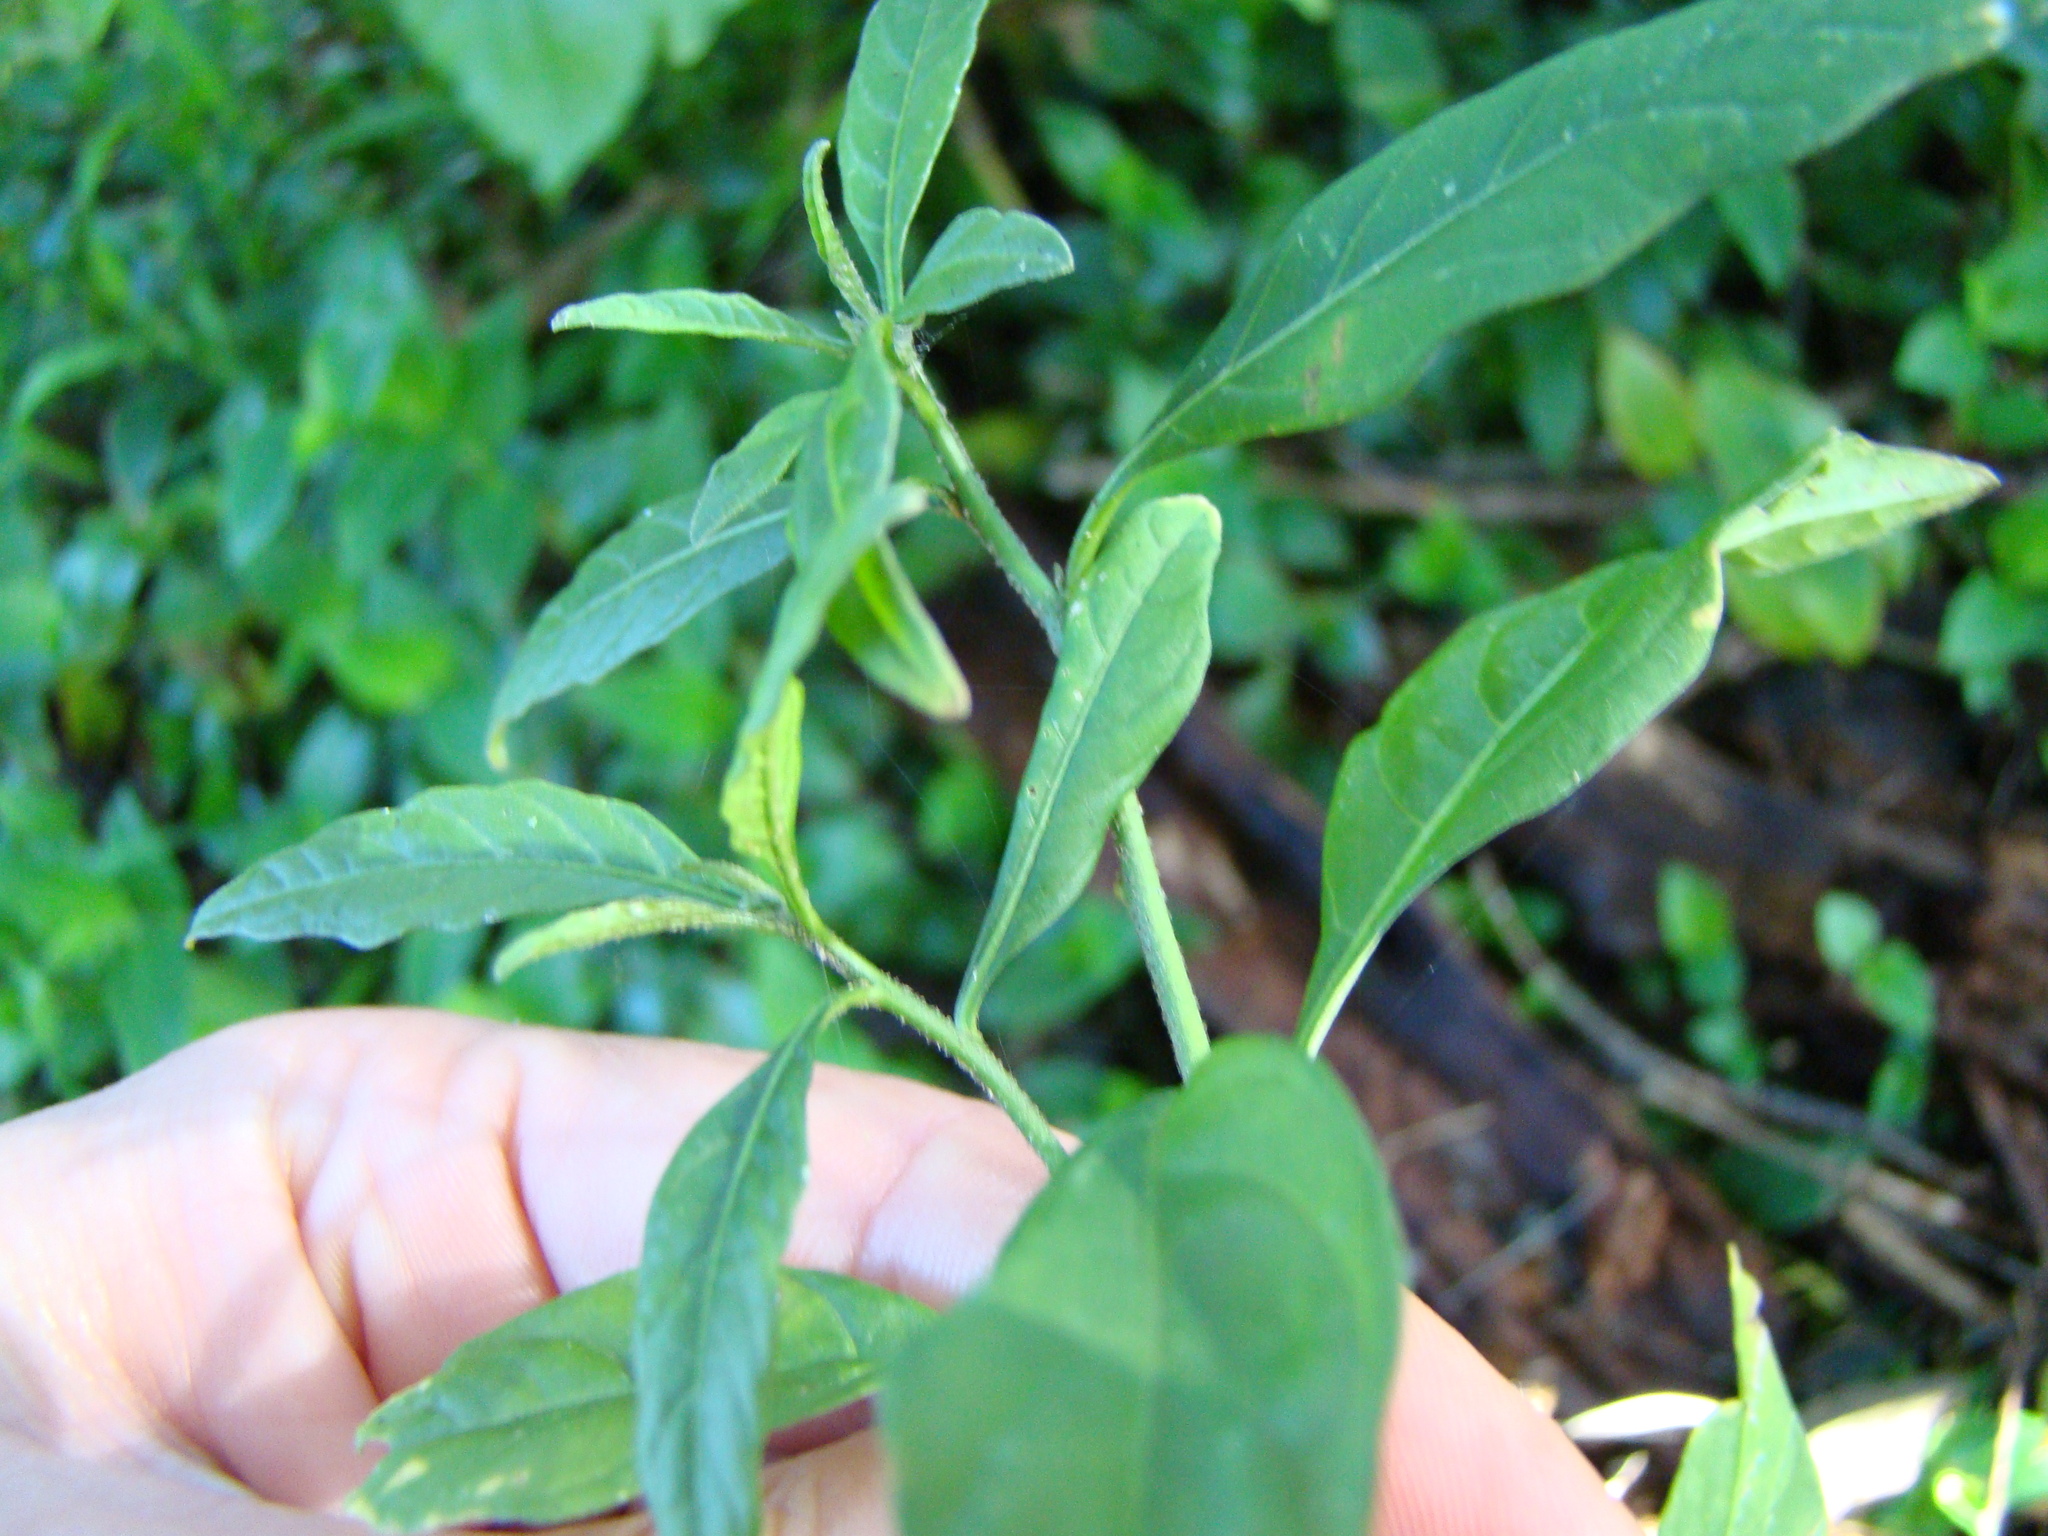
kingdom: Plantae
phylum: Tracheophyta
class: Magnoliopsida
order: Solanales
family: Solanaceae
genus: Solanum
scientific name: Solanum pseudocapsicum
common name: Jerusalem cherry
